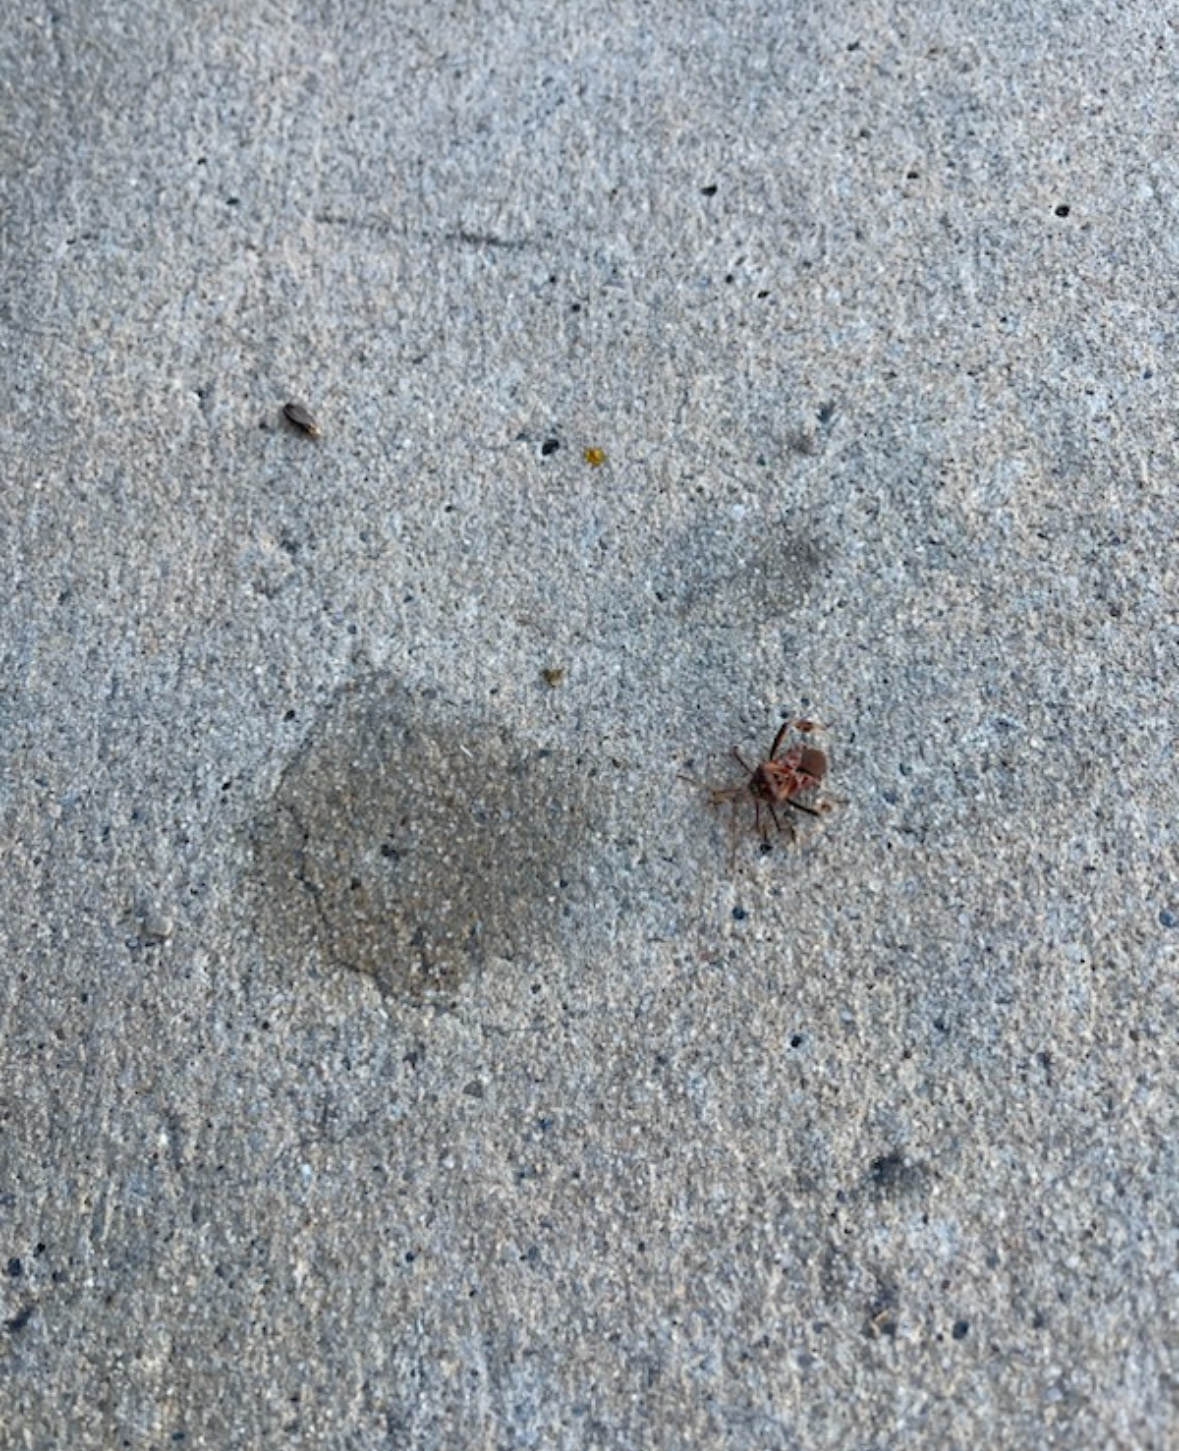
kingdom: Animalia
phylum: Arthropoda
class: Insecta
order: Hemiptera
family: Coreidae
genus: Leptoglossus
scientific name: Leptoglossus occidentalis
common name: Western conifer-seed bug
